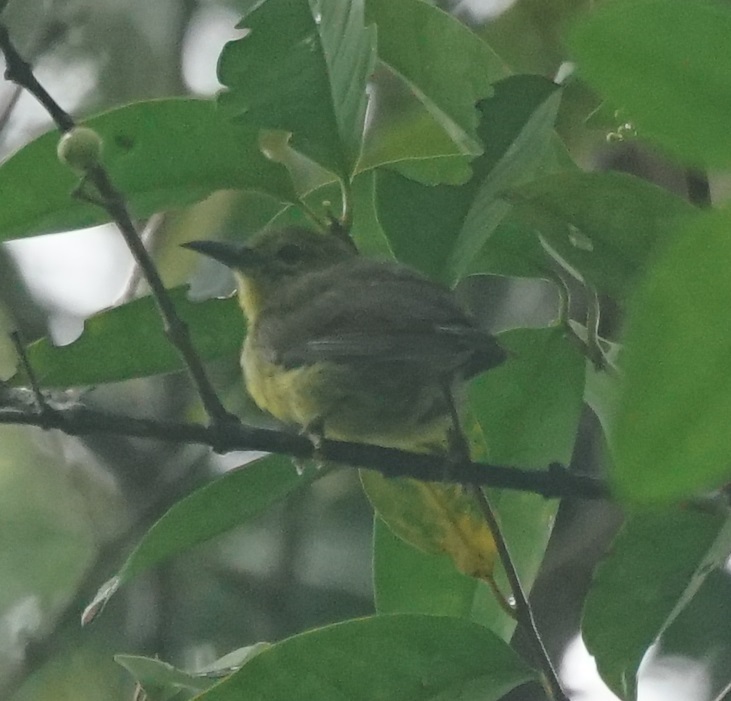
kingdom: Animalia
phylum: Chordata
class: Aves
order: Passeriformes
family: Nectariniidae
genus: Anthreptes
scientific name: Anthreptes malacensis
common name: Brown-throated sunbird
